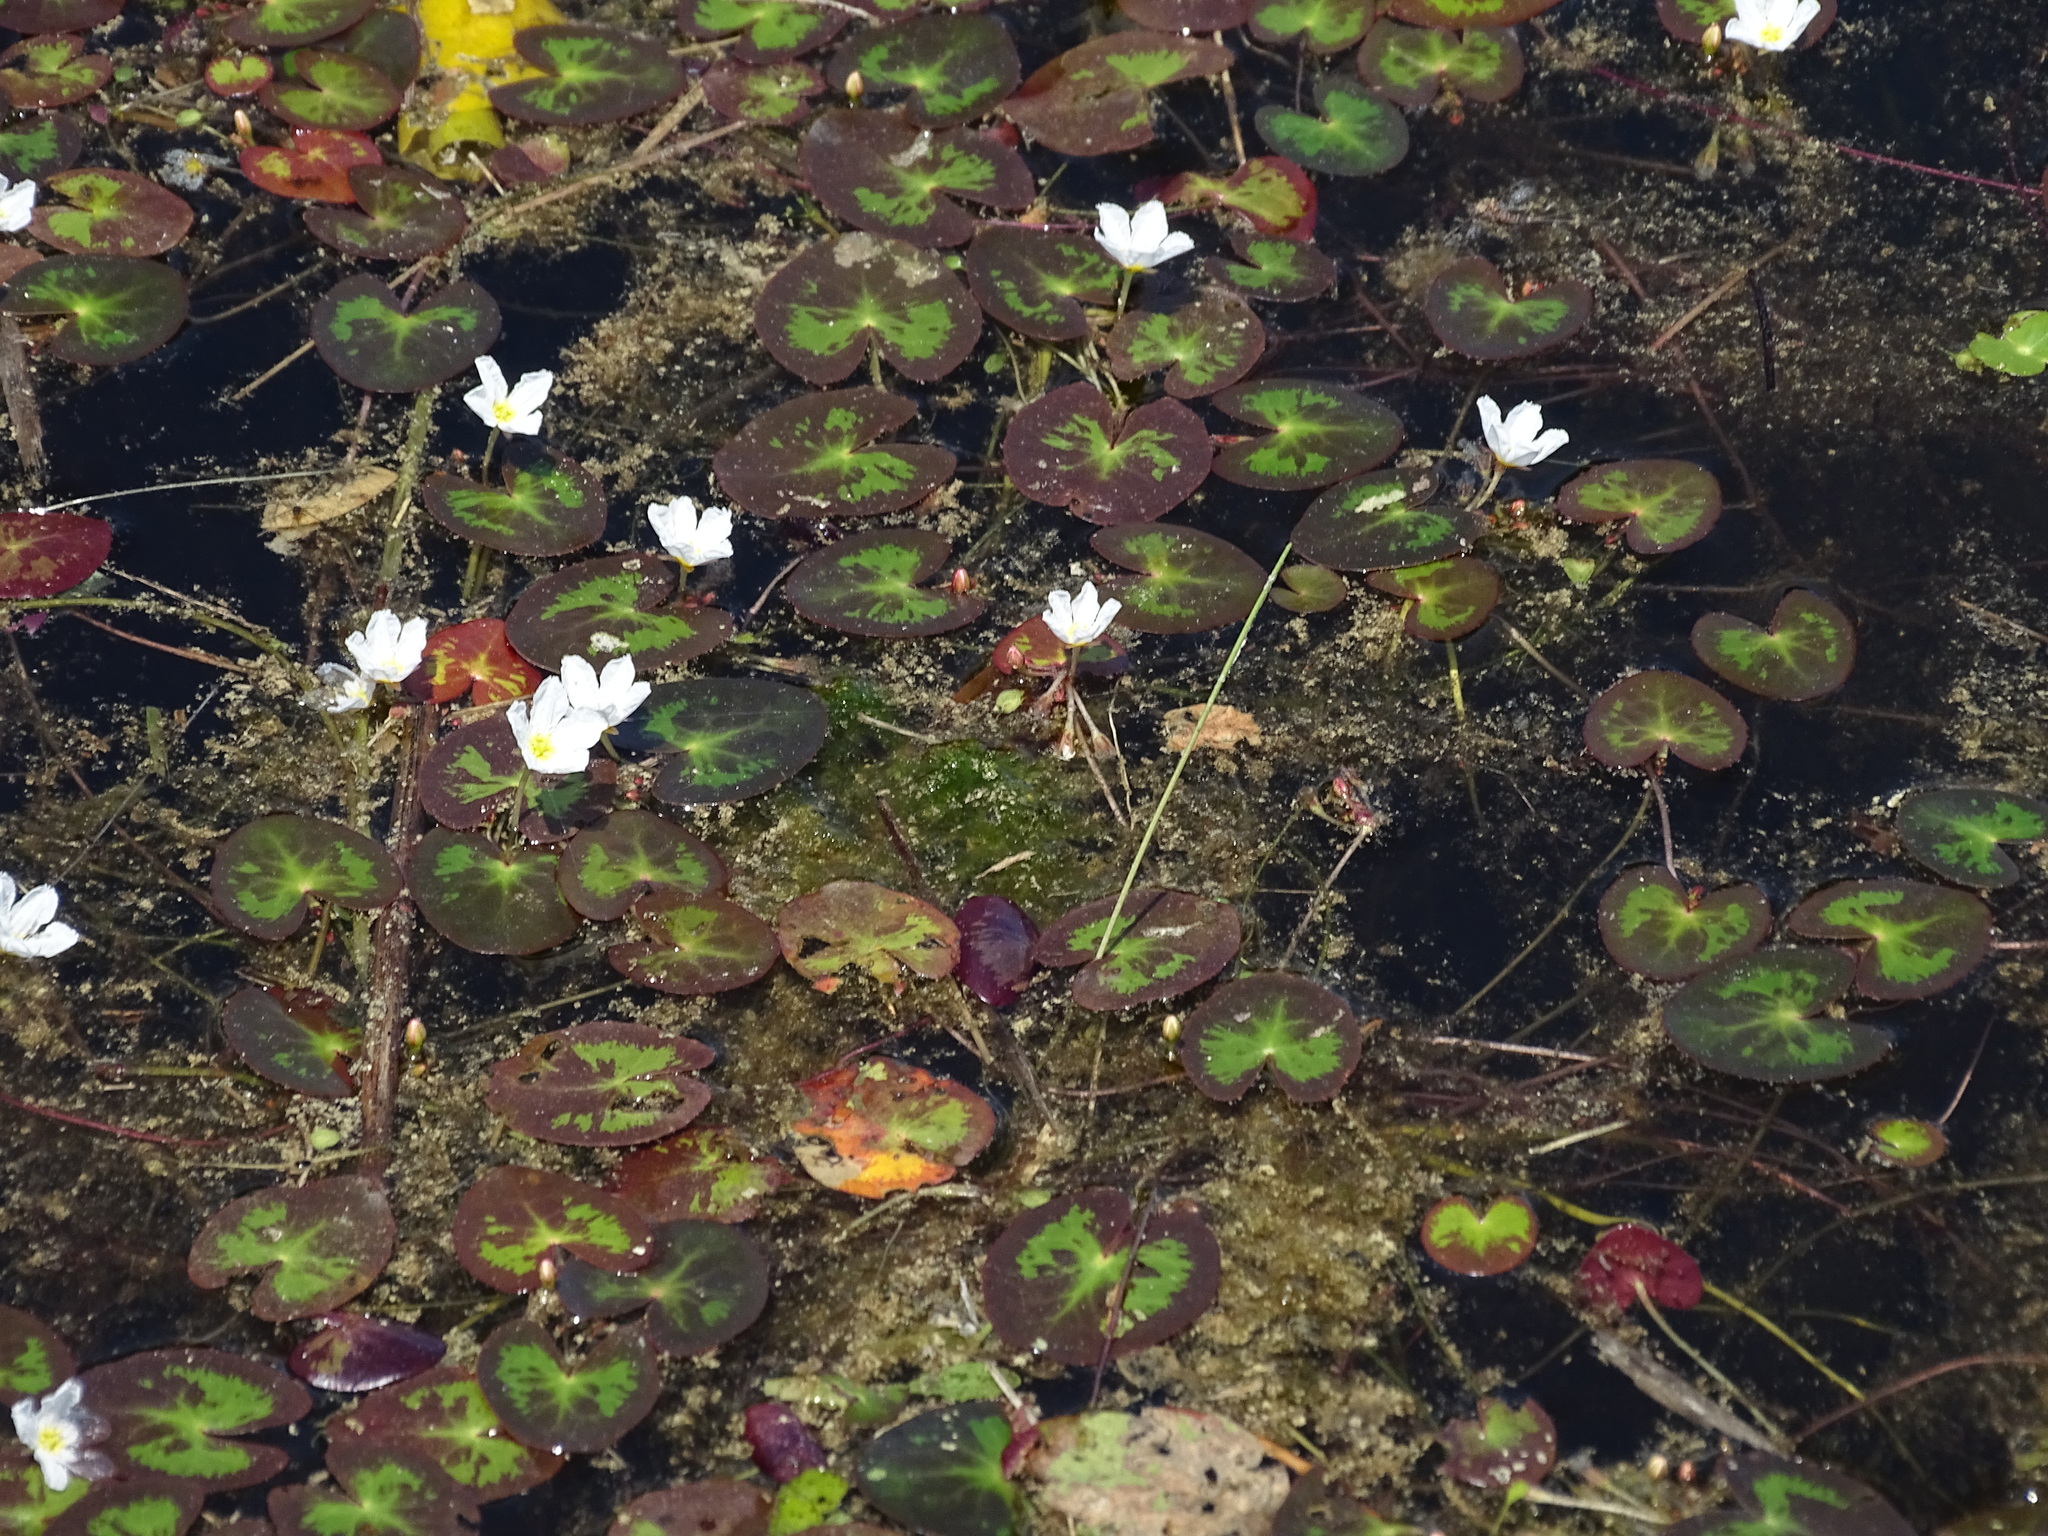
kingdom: Plantae
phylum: Tracheophyta
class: Magnoliopsida
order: Asterales
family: Menyanthaceae
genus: Nymphoides
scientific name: Nymphoides cordata
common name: Eight-angled floatingheart
